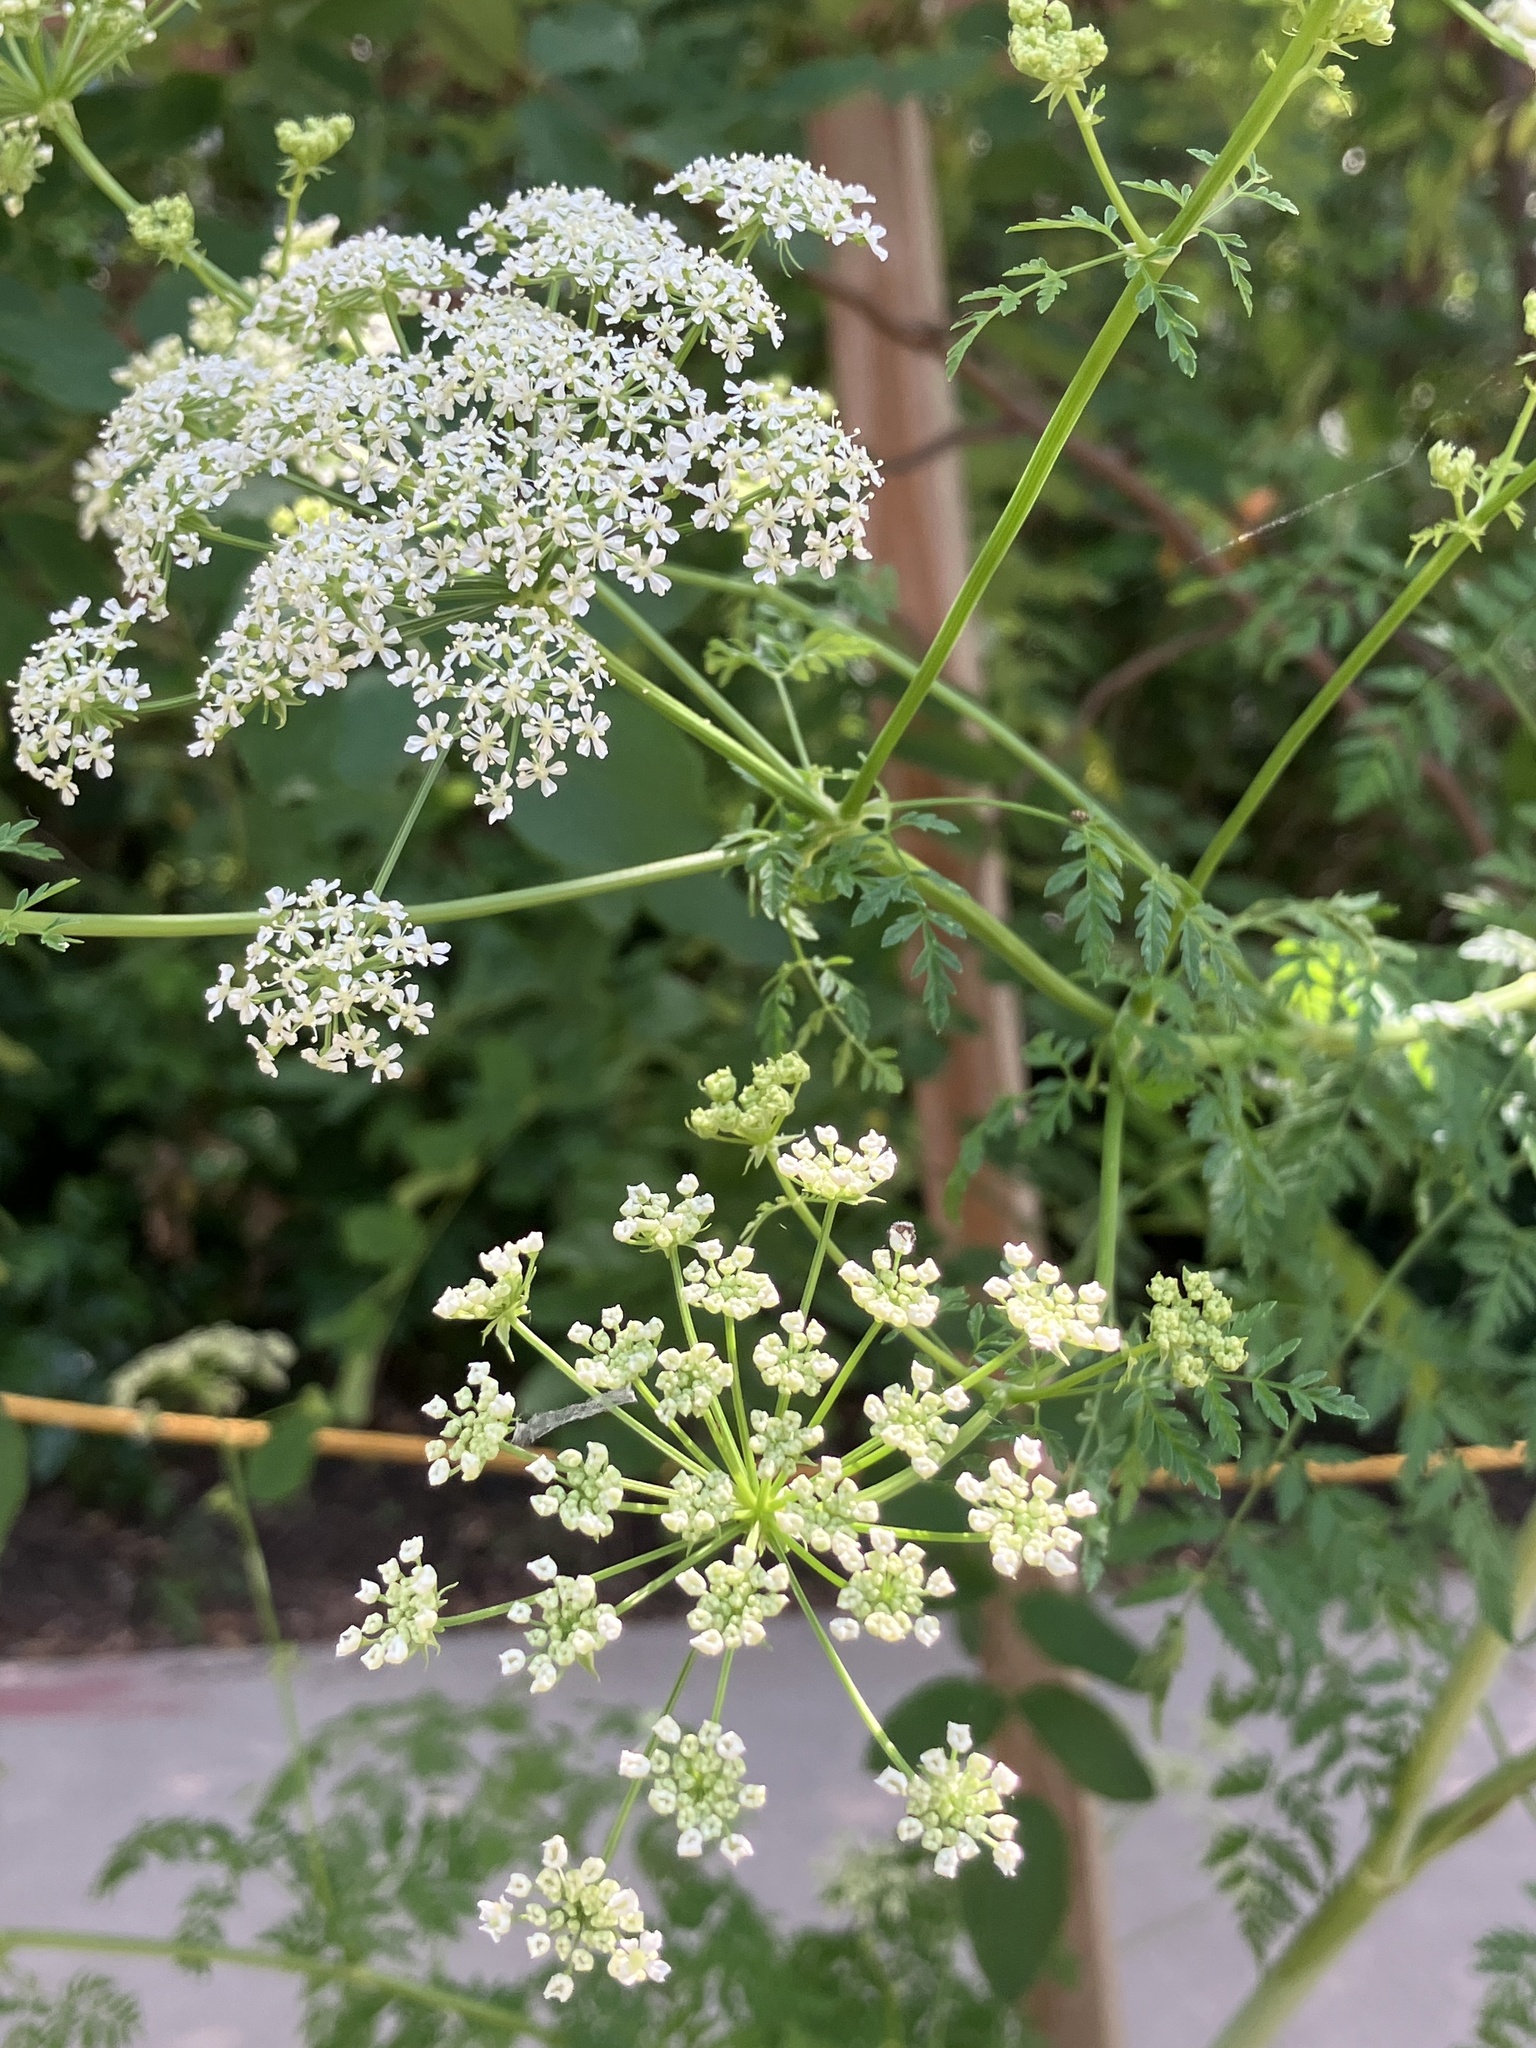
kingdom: Plantae
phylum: Tracheophyta
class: Magnoliopsida
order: Apiales
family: Apiaceae
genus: Conium
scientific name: Conium maculatum
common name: Hemlock
